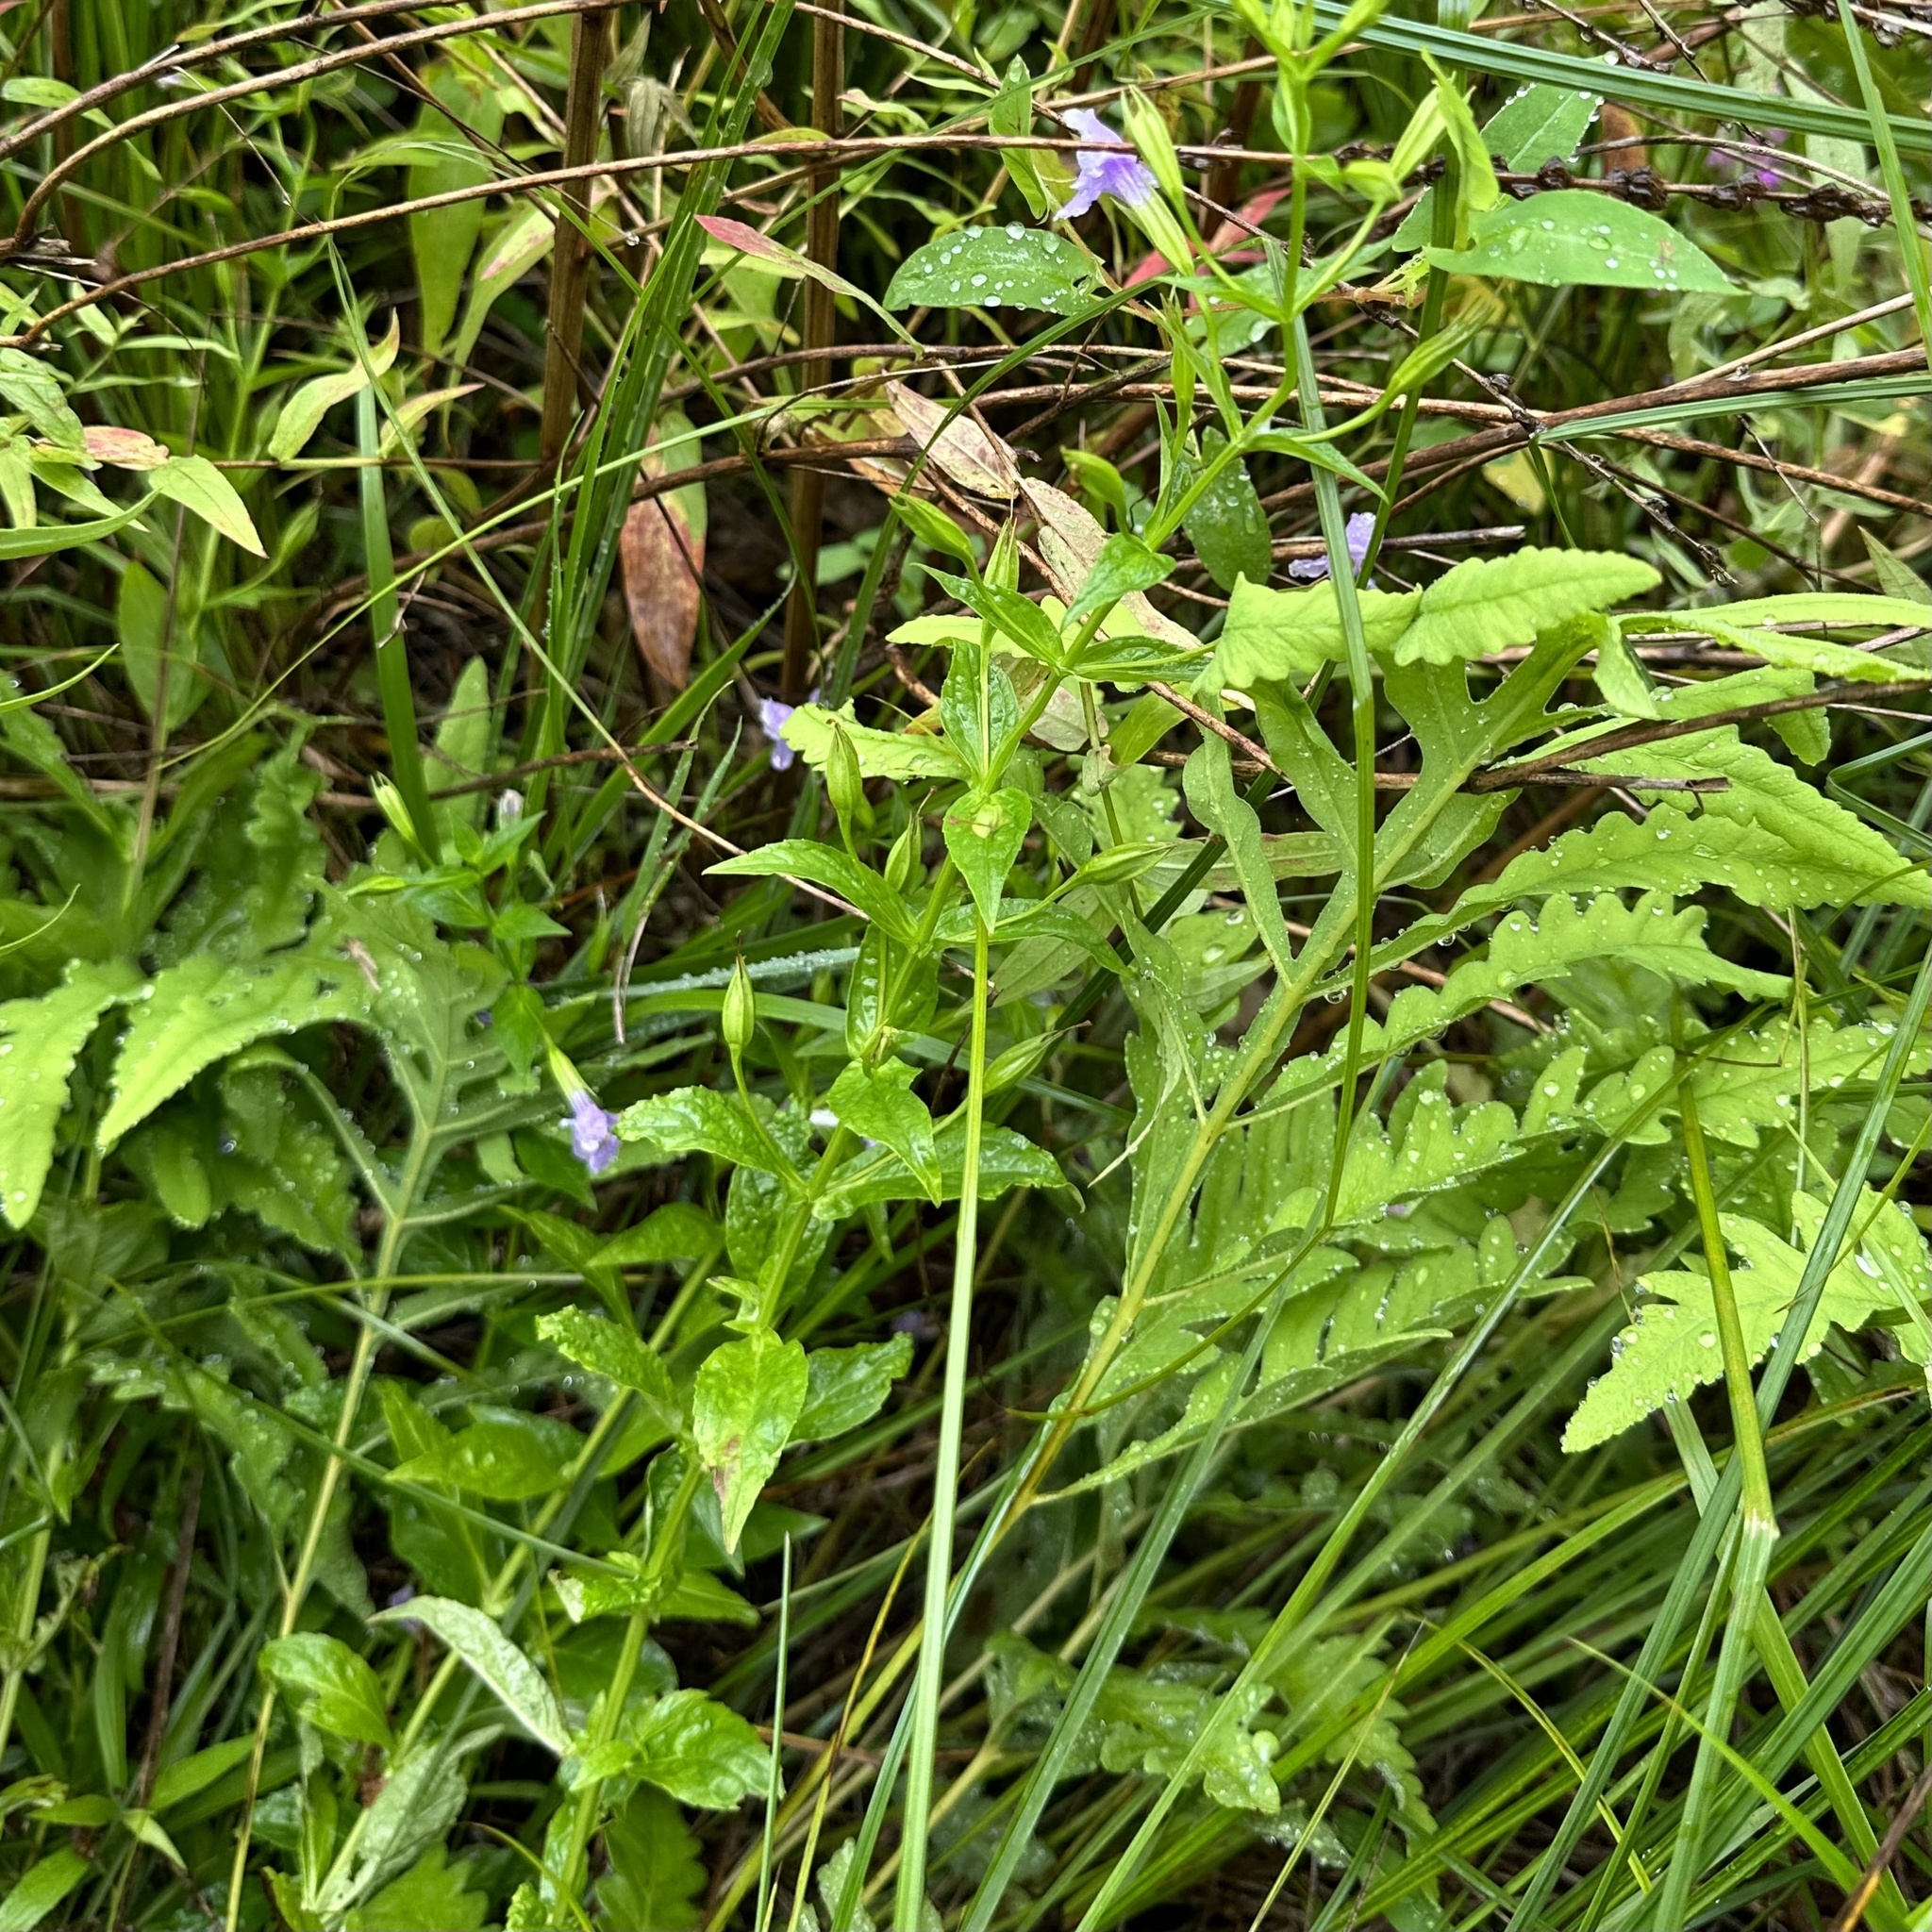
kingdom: Plantae
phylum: Tracheophyta
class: Magnoliopsida
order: Lamiales
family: Phrymaceae
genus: Mimulus
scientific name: Mimulus ringens
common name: Allegheny monkeyflower
